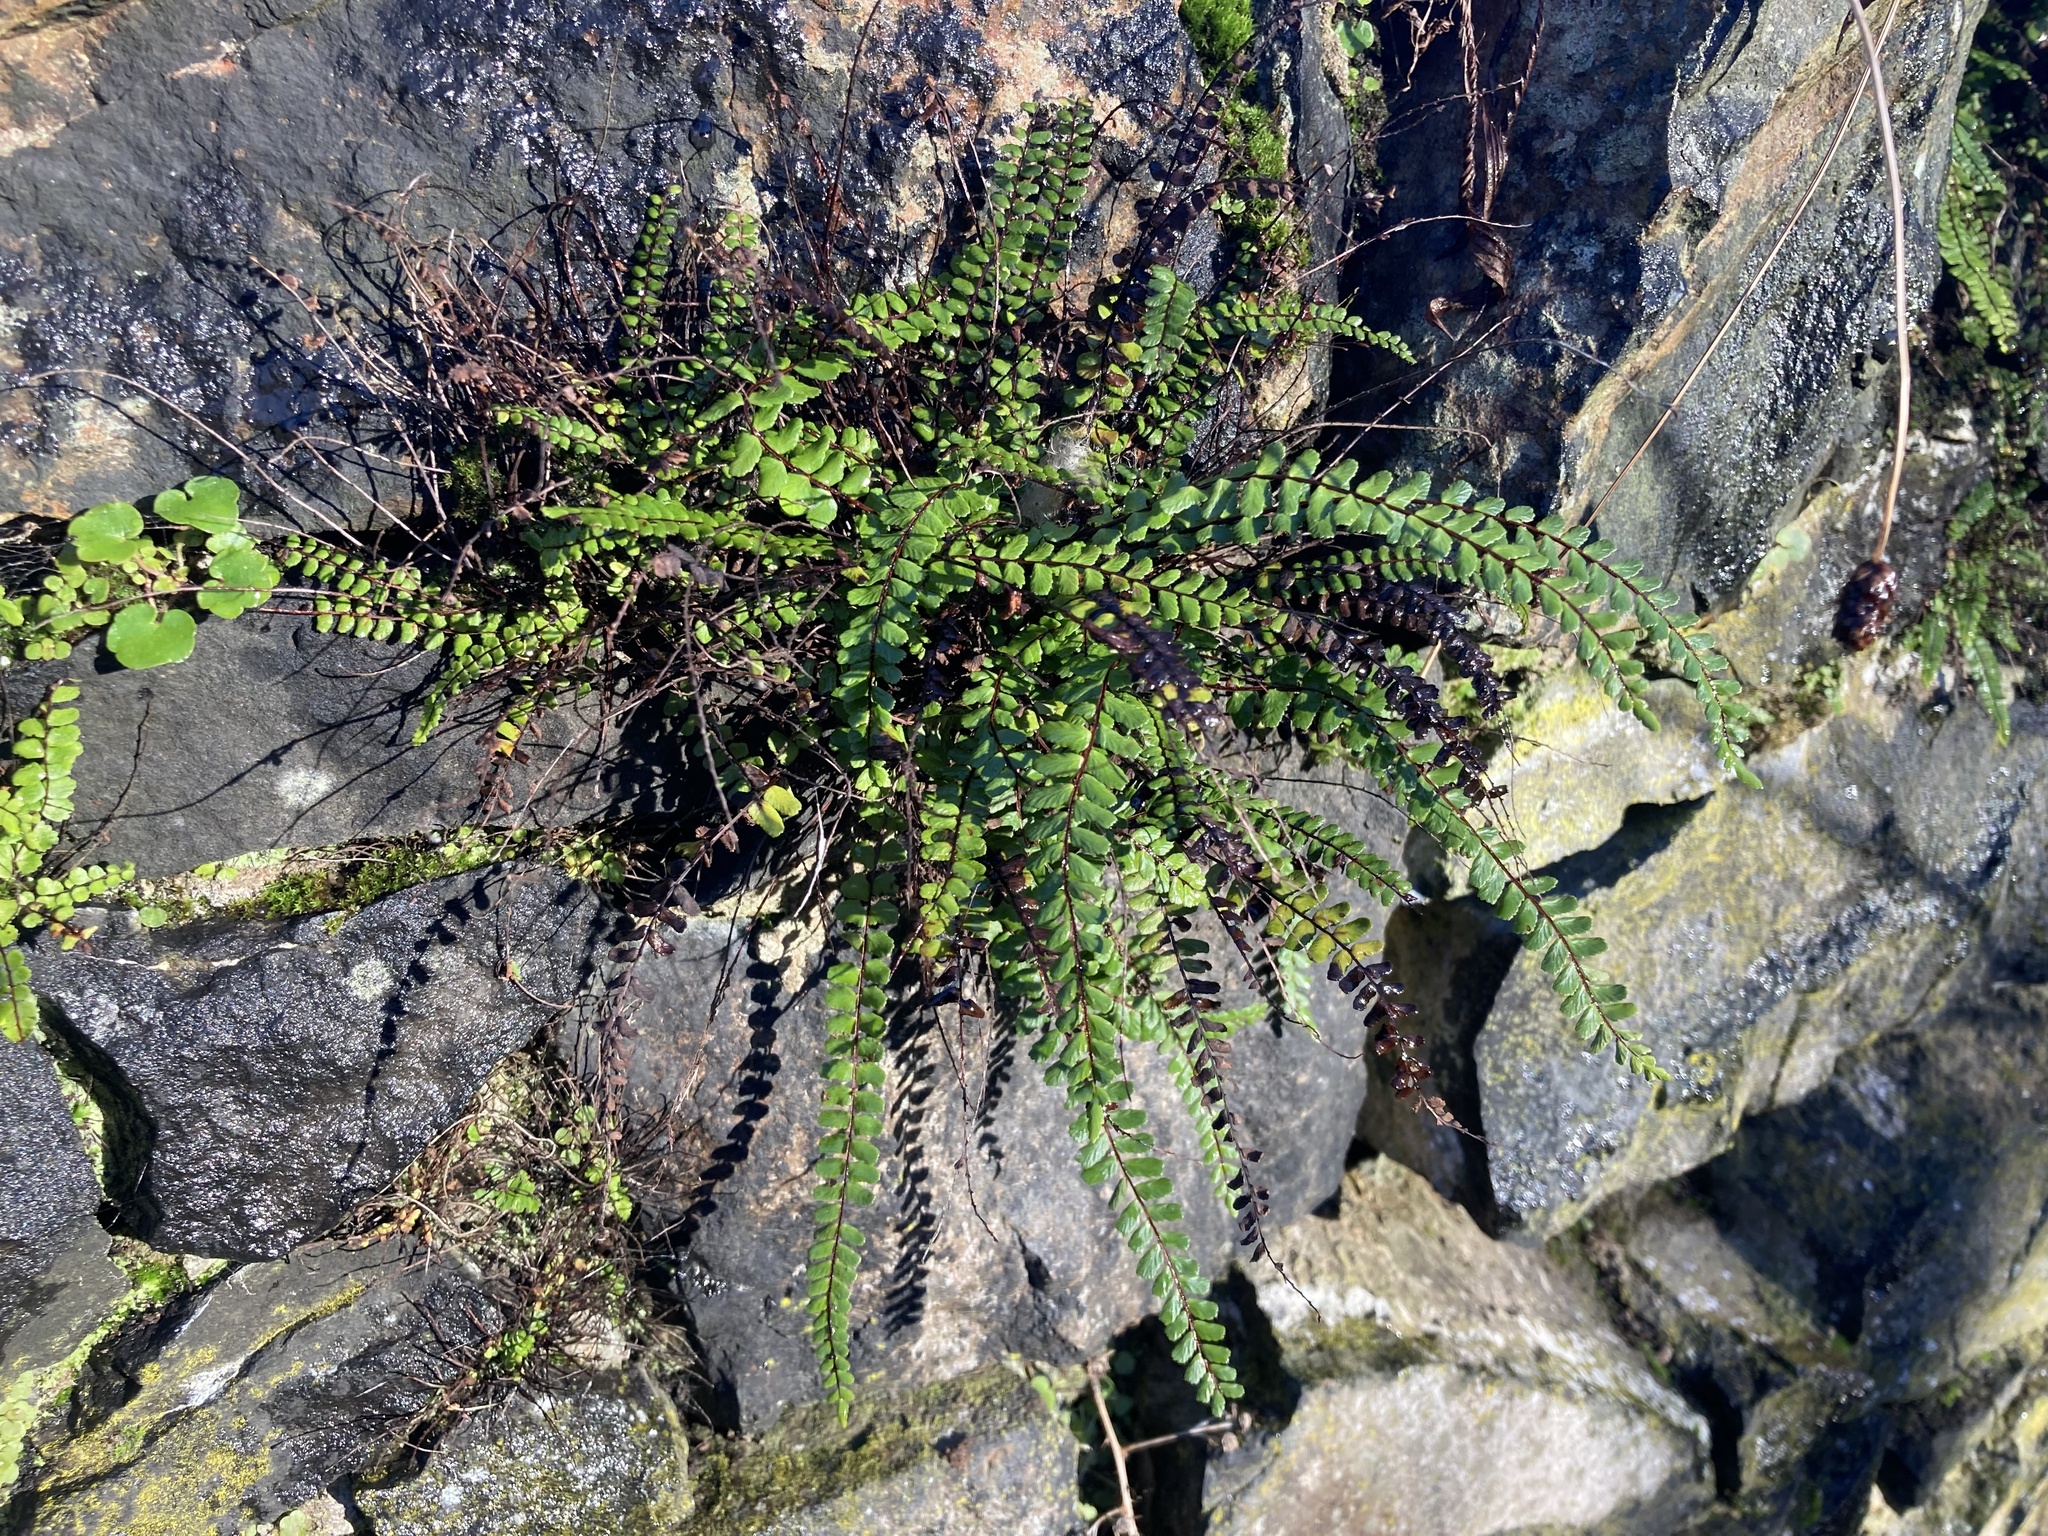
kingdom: Plantae
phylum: Tracheophyta
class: Polypodiopsida
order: Polypodiales
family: Aspleniaceae
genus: Asplenium
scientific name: Asplenium trichomanes
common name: Maidenhair spleenwort
